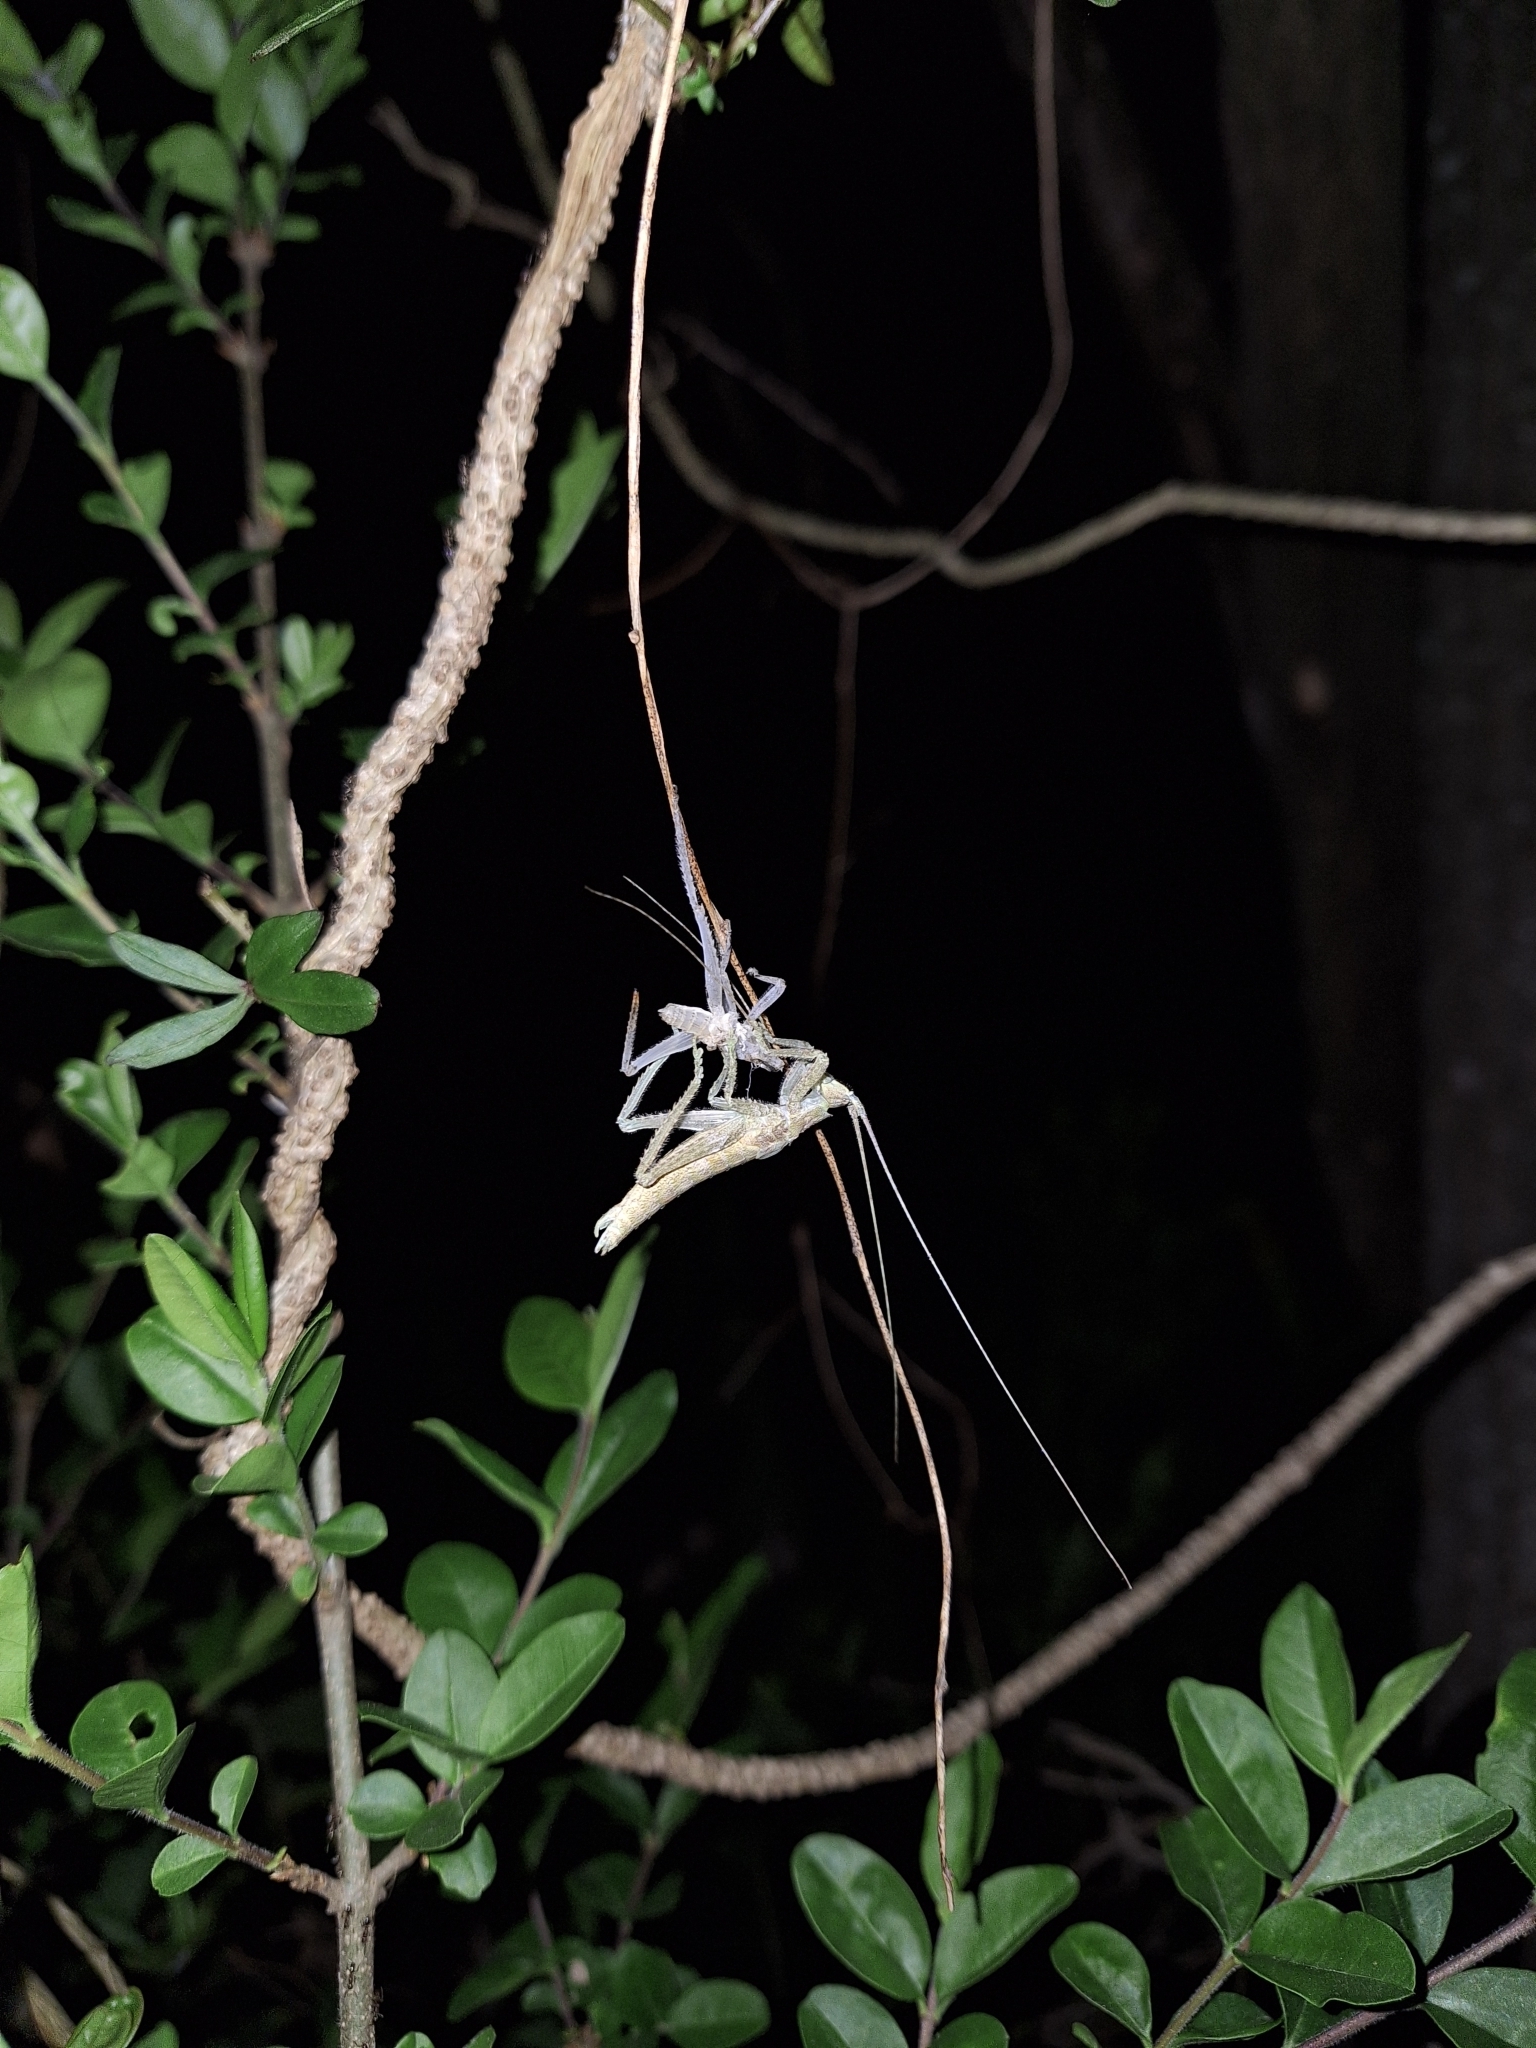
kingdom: Animalia
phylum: Arthropoda
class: Insecta
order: Orthoptera
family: Tettigoniidae
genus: Dasyscelus
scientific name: Dasyscelus normalis
